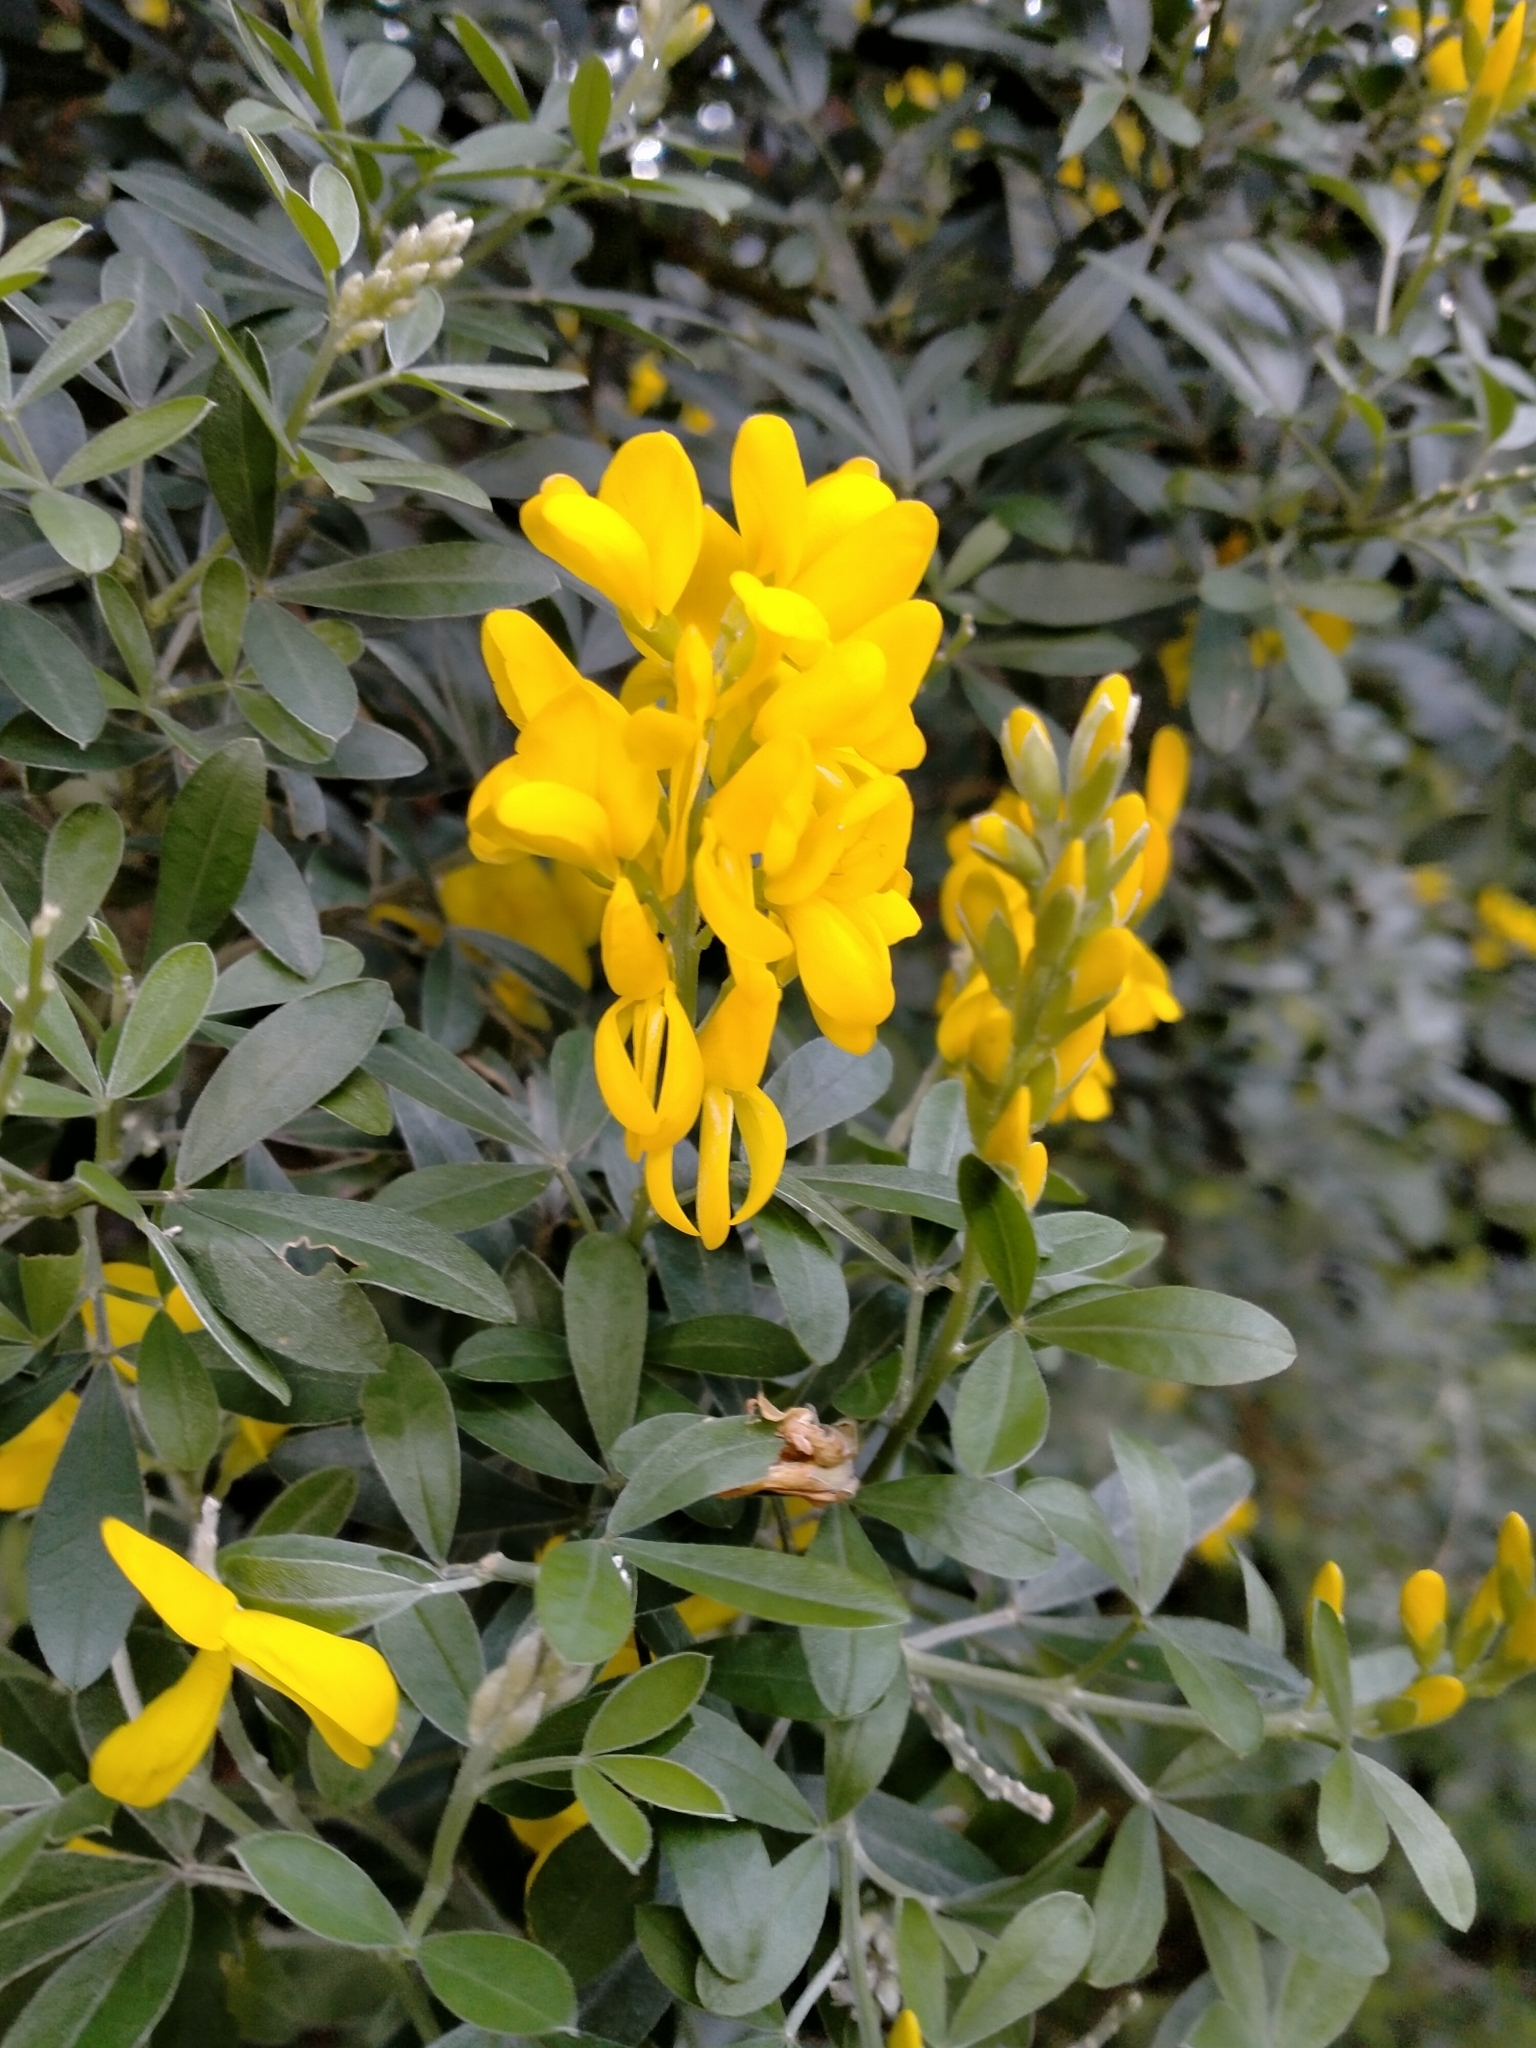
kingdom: Plantae
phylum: Tracheophyta
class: Magnoliopsida
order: Fabales
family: Fabaceae
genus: Genista
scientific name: Genista stenopetala
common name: Leafy broom
